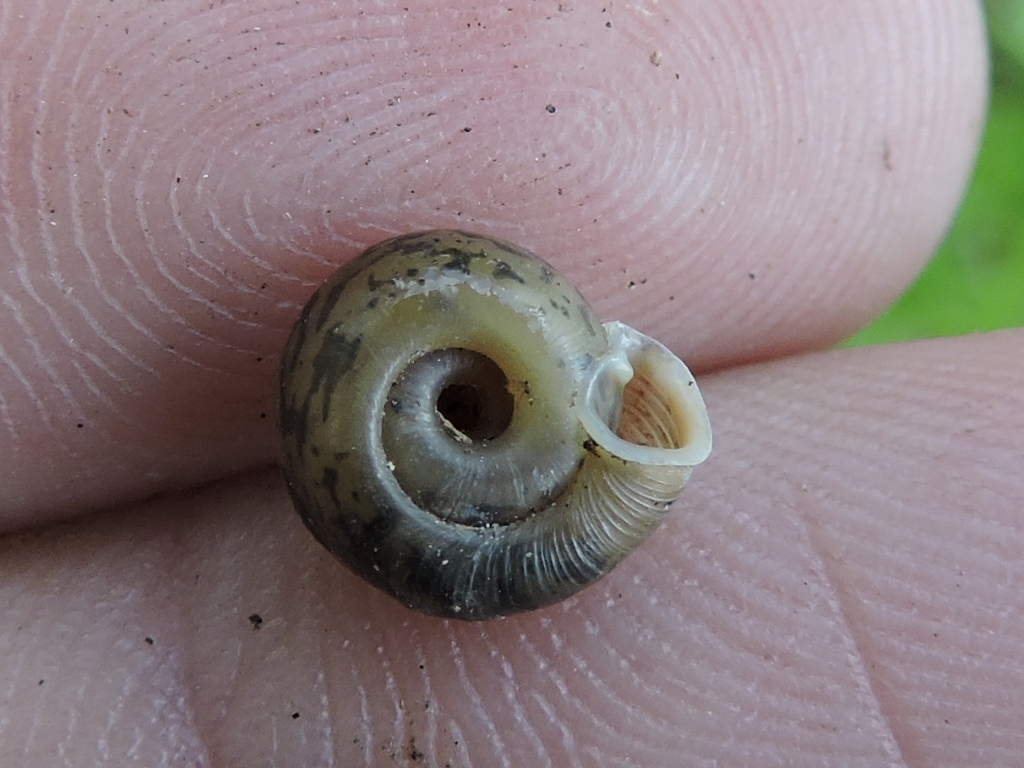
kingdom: Animalia
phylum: Mollusca
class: Gastropoda
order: Stylommatophora
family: Polygyridae
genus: Polygyra
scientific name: Polygyra cereolus
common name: Southern flatcone snail
